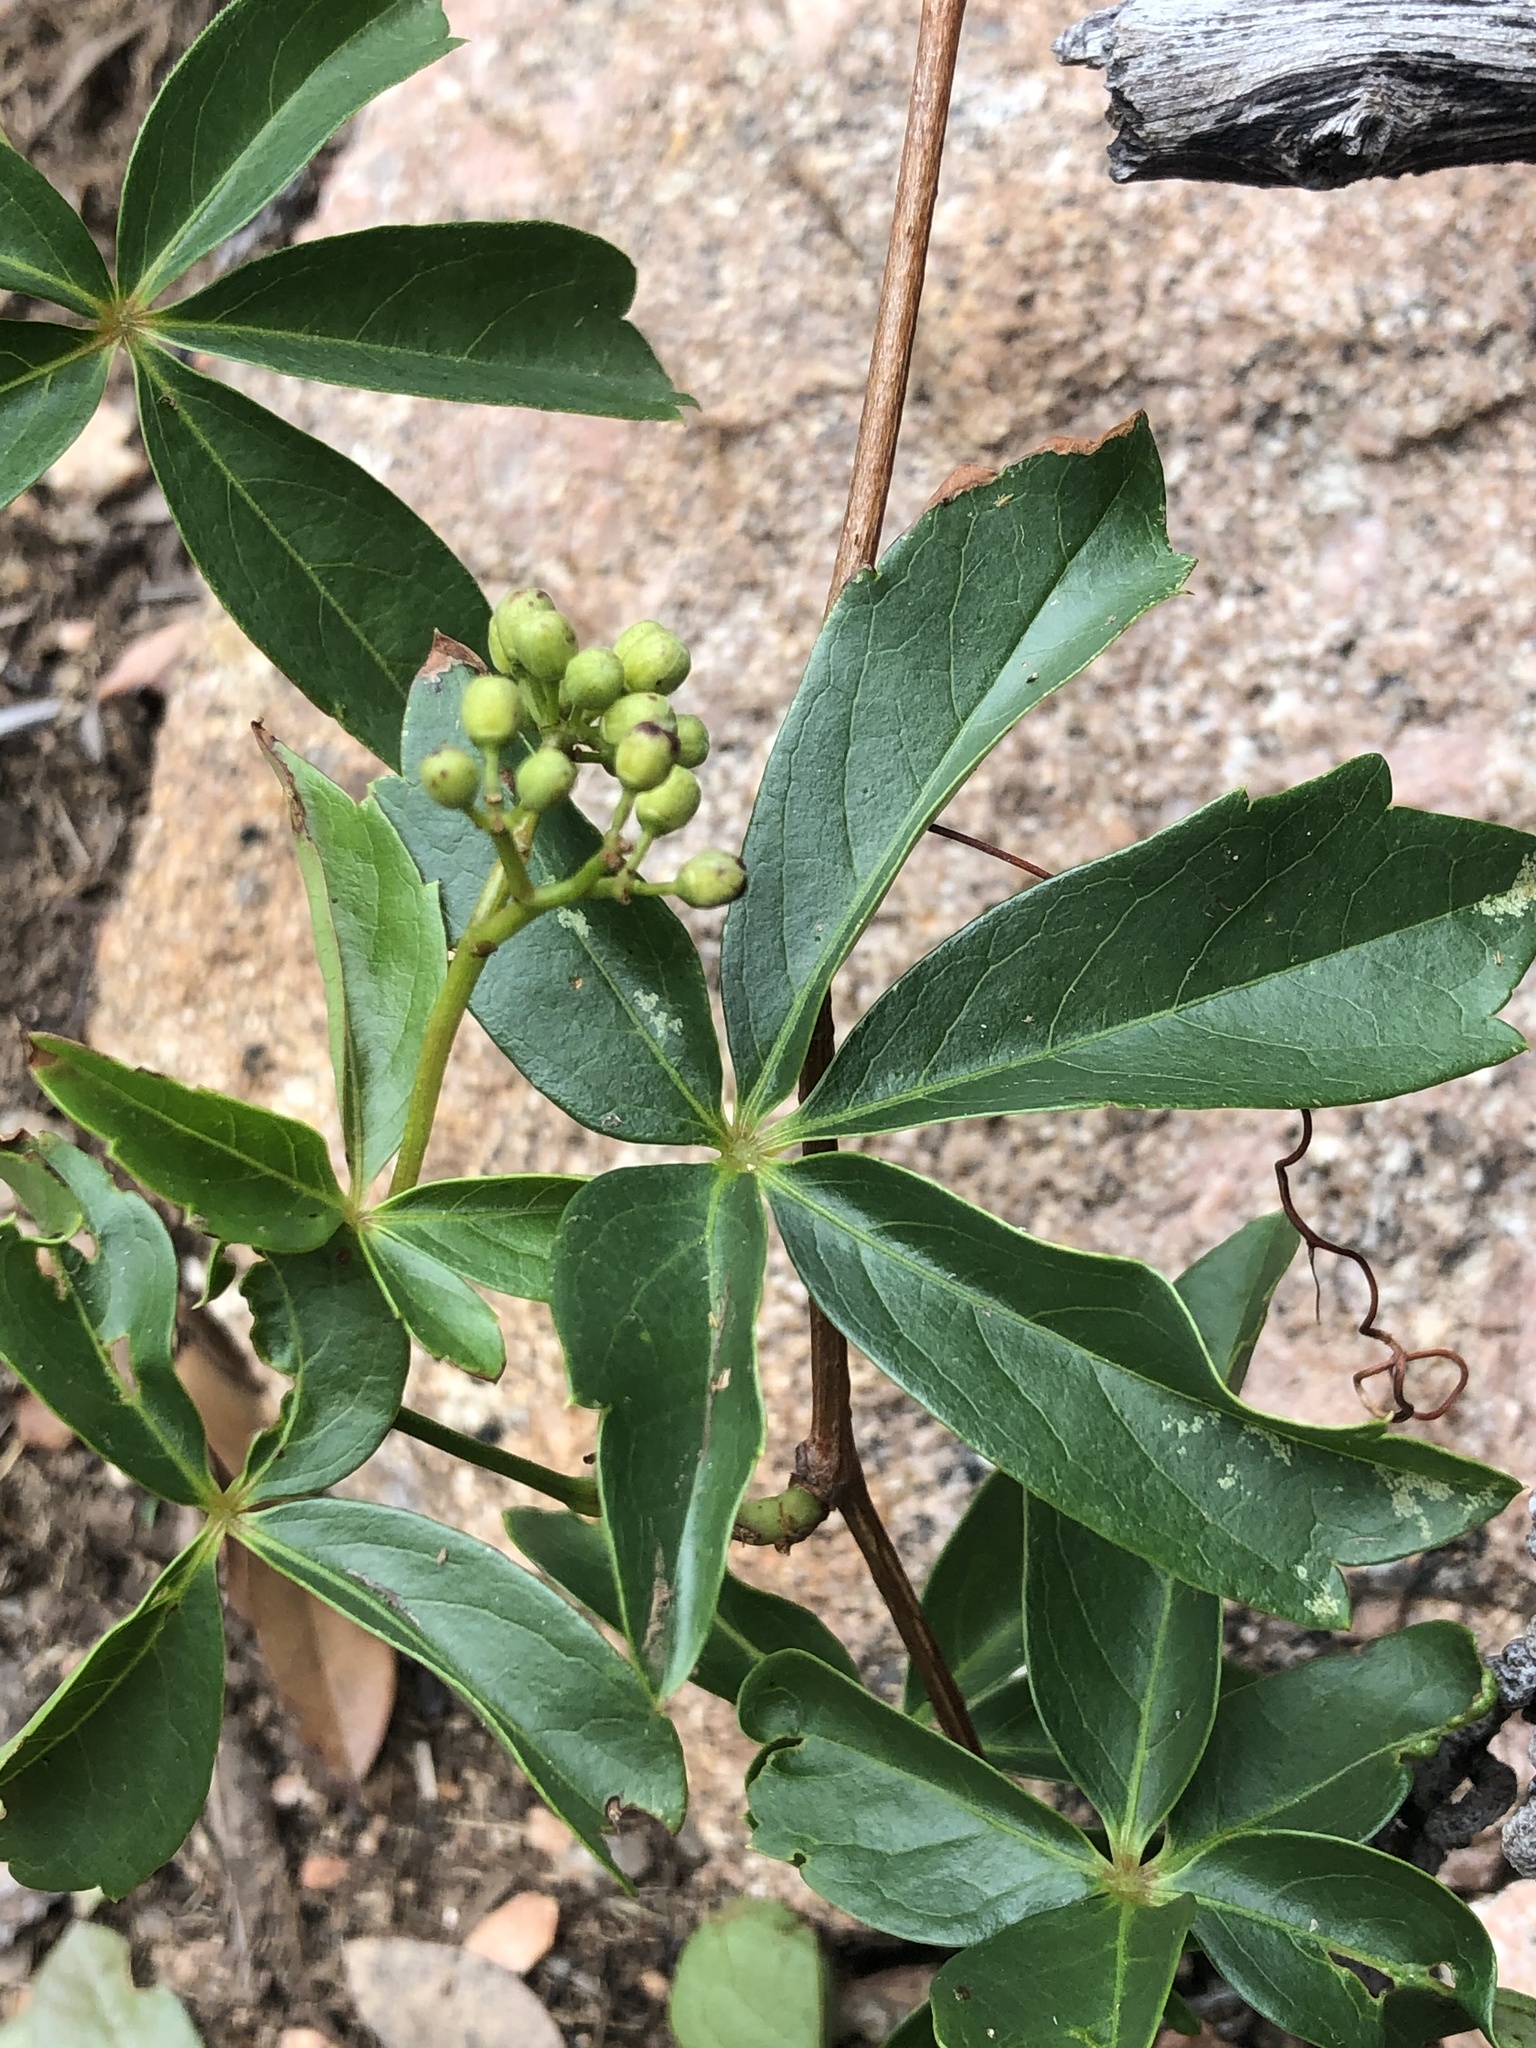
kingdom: Plantae
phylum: Tracheophyta
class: Magnoliopsida
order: Vitales
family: Vitaceae
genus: Parthenocissus
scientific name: Parthenocissus quinquefolia
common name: Virginia-creeper
